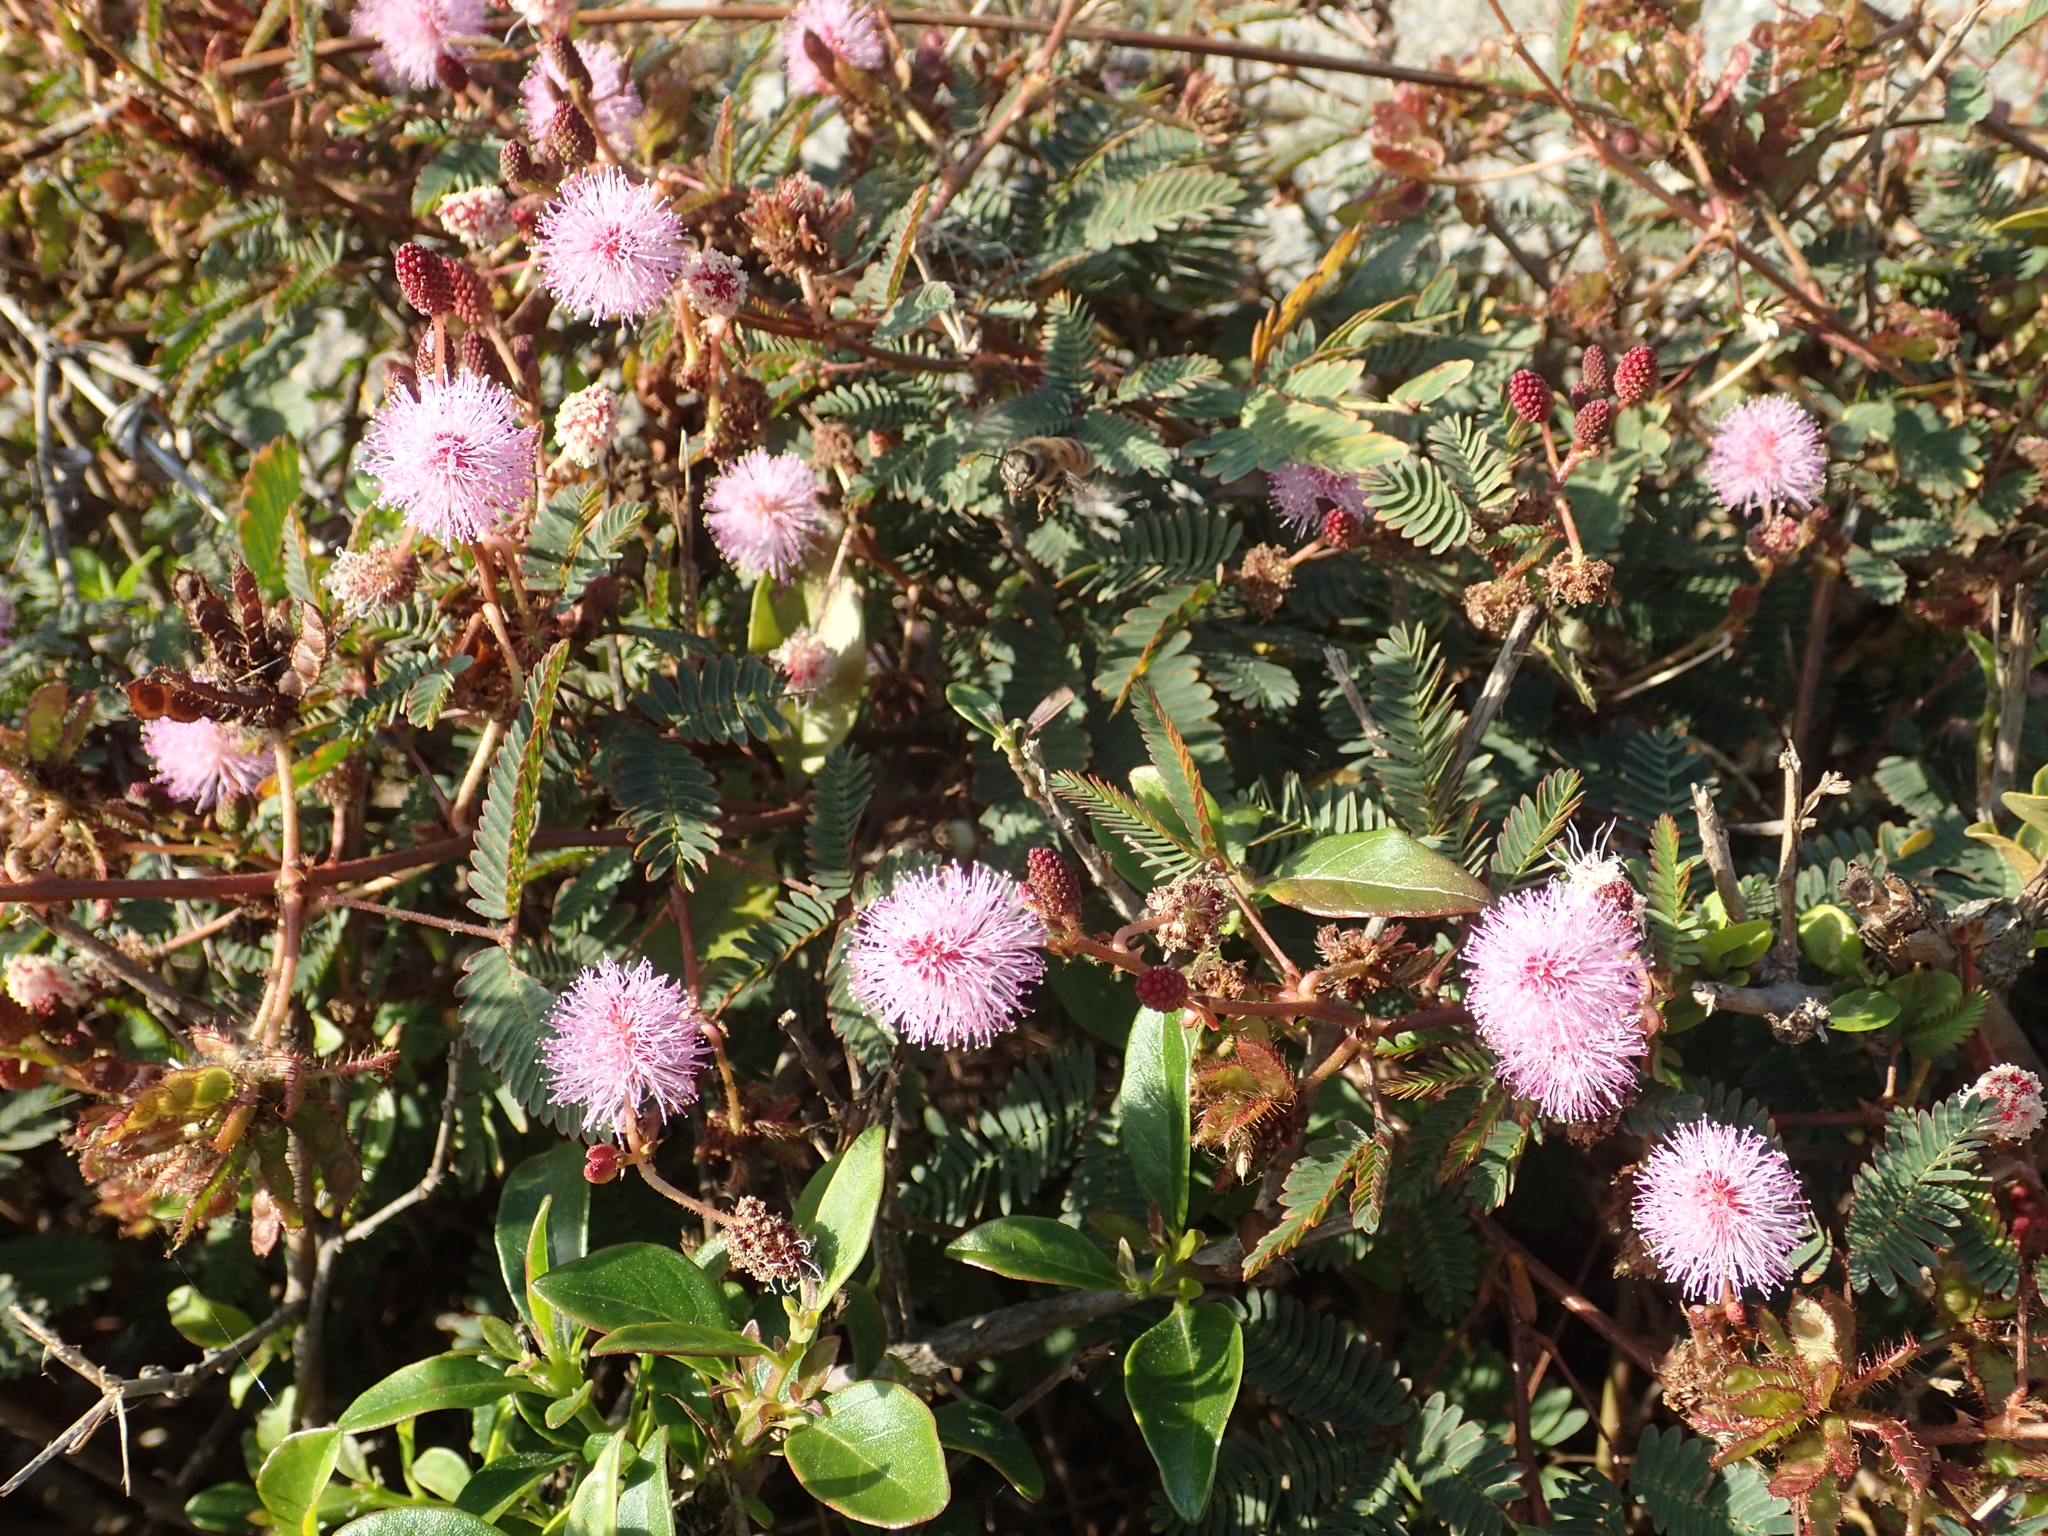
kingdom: Plantae
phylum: Tracheophyta
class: Magnoliopsida
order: Fabales
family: Fabaceae
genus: Mimosa
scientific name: Mimosa pudica
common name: Sensitive plant
